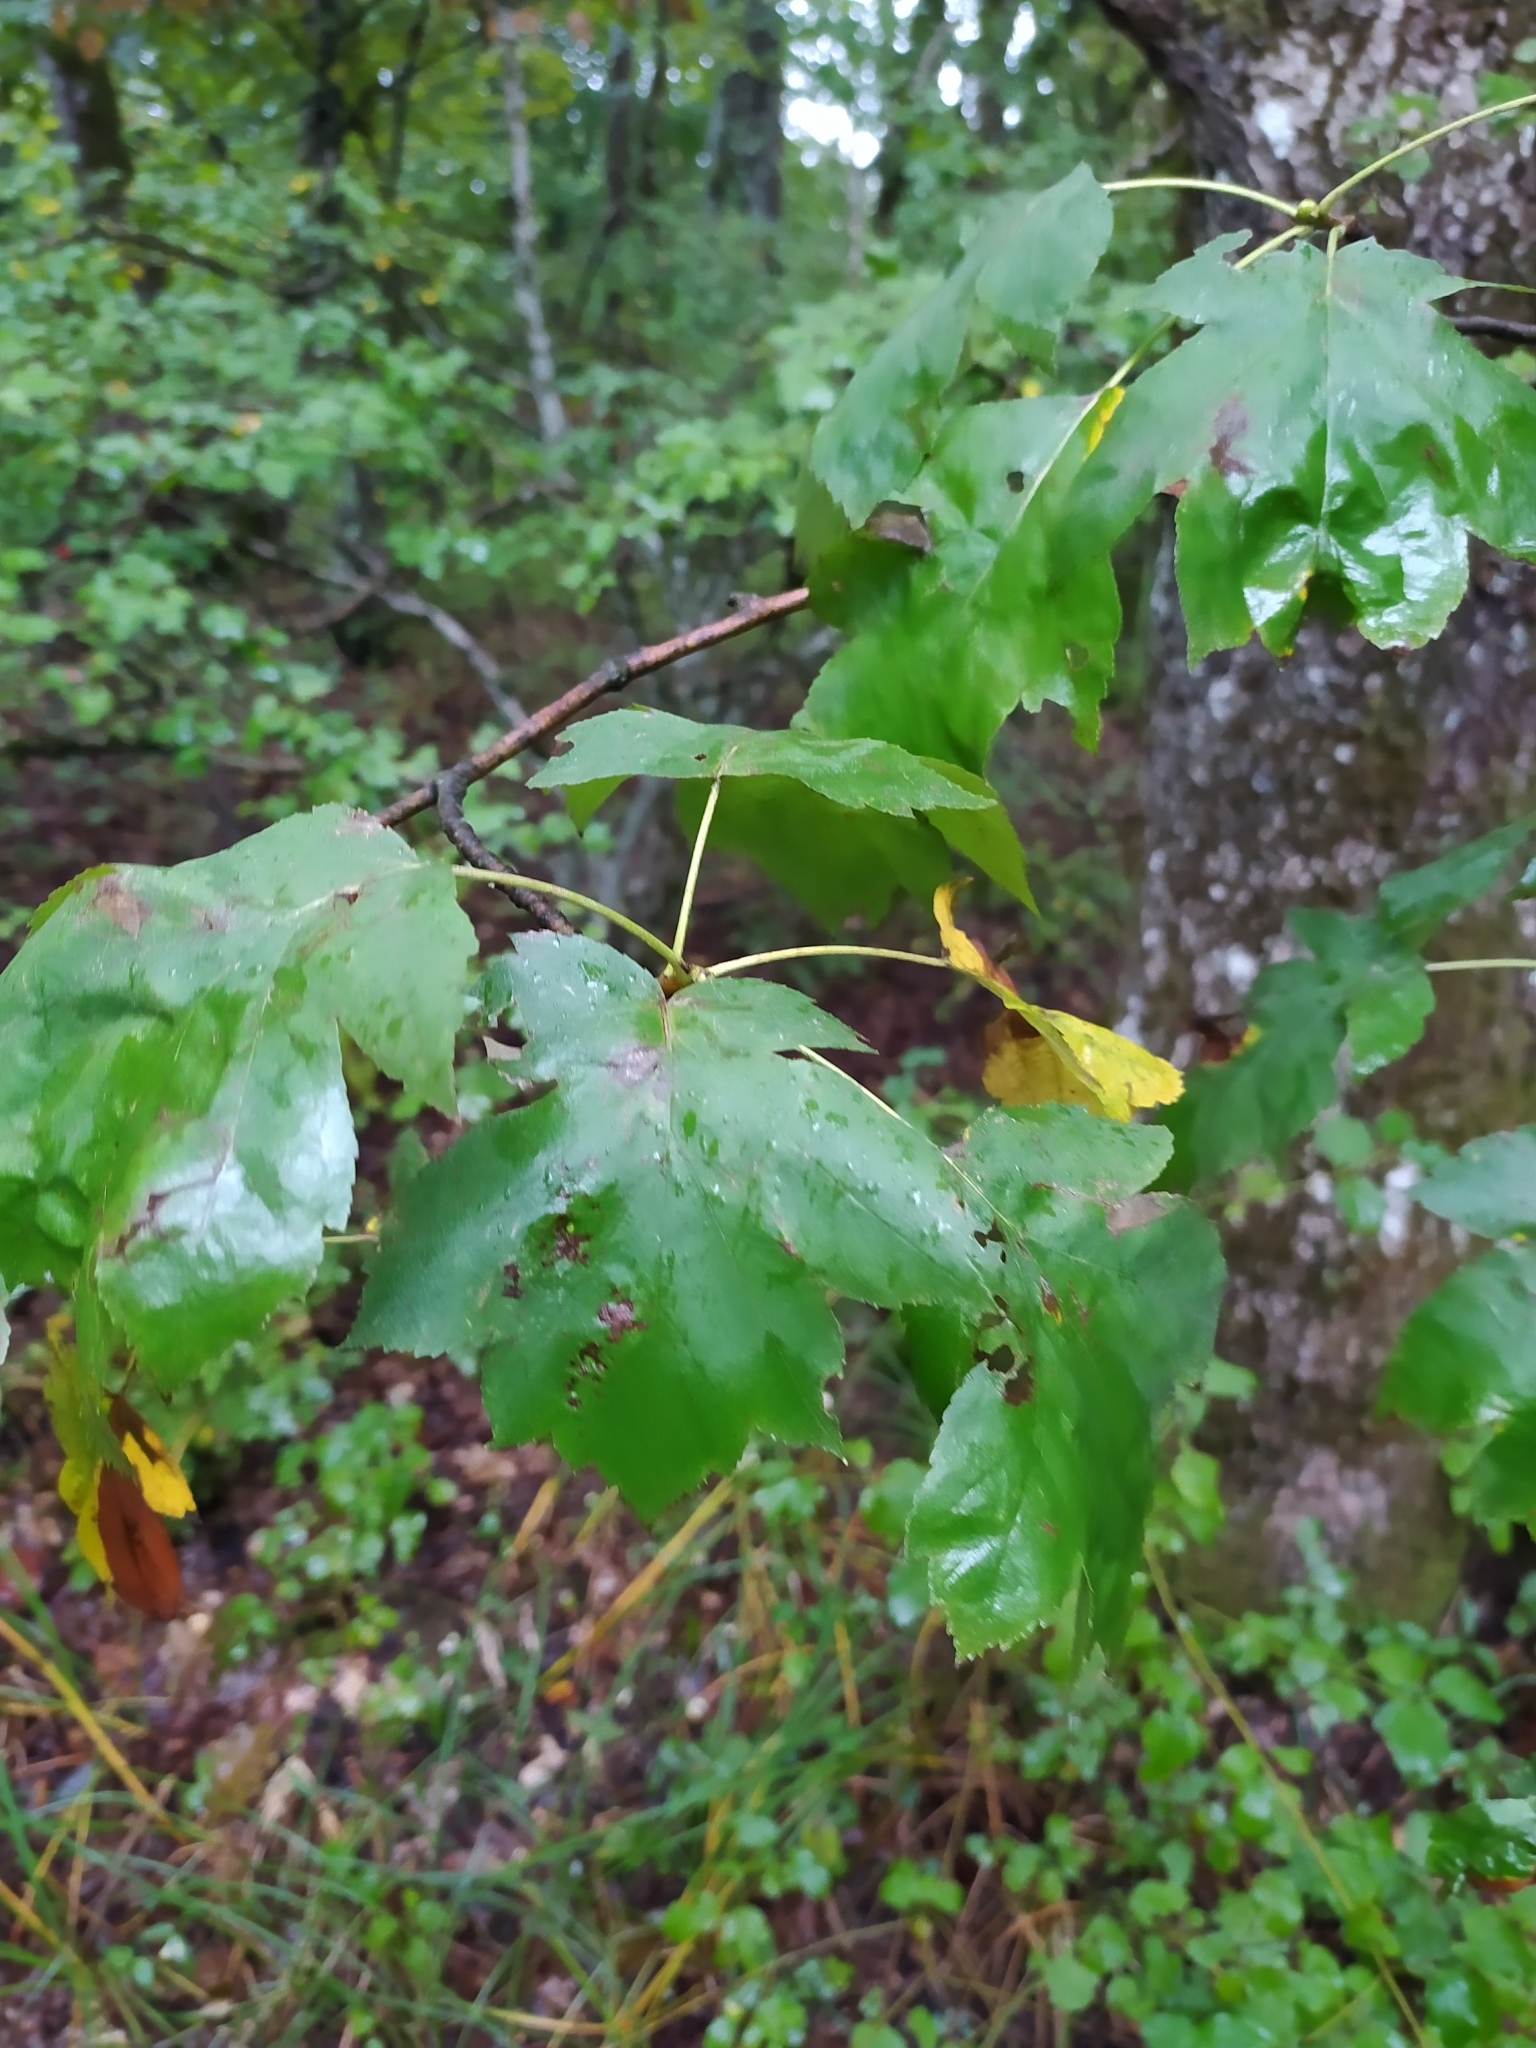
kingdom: Plantae
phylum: Tracheophyta
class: Magnoliopsida
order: Rosales
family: Rosaceae
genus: Torminalis
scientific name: Torminalis glaberrima
